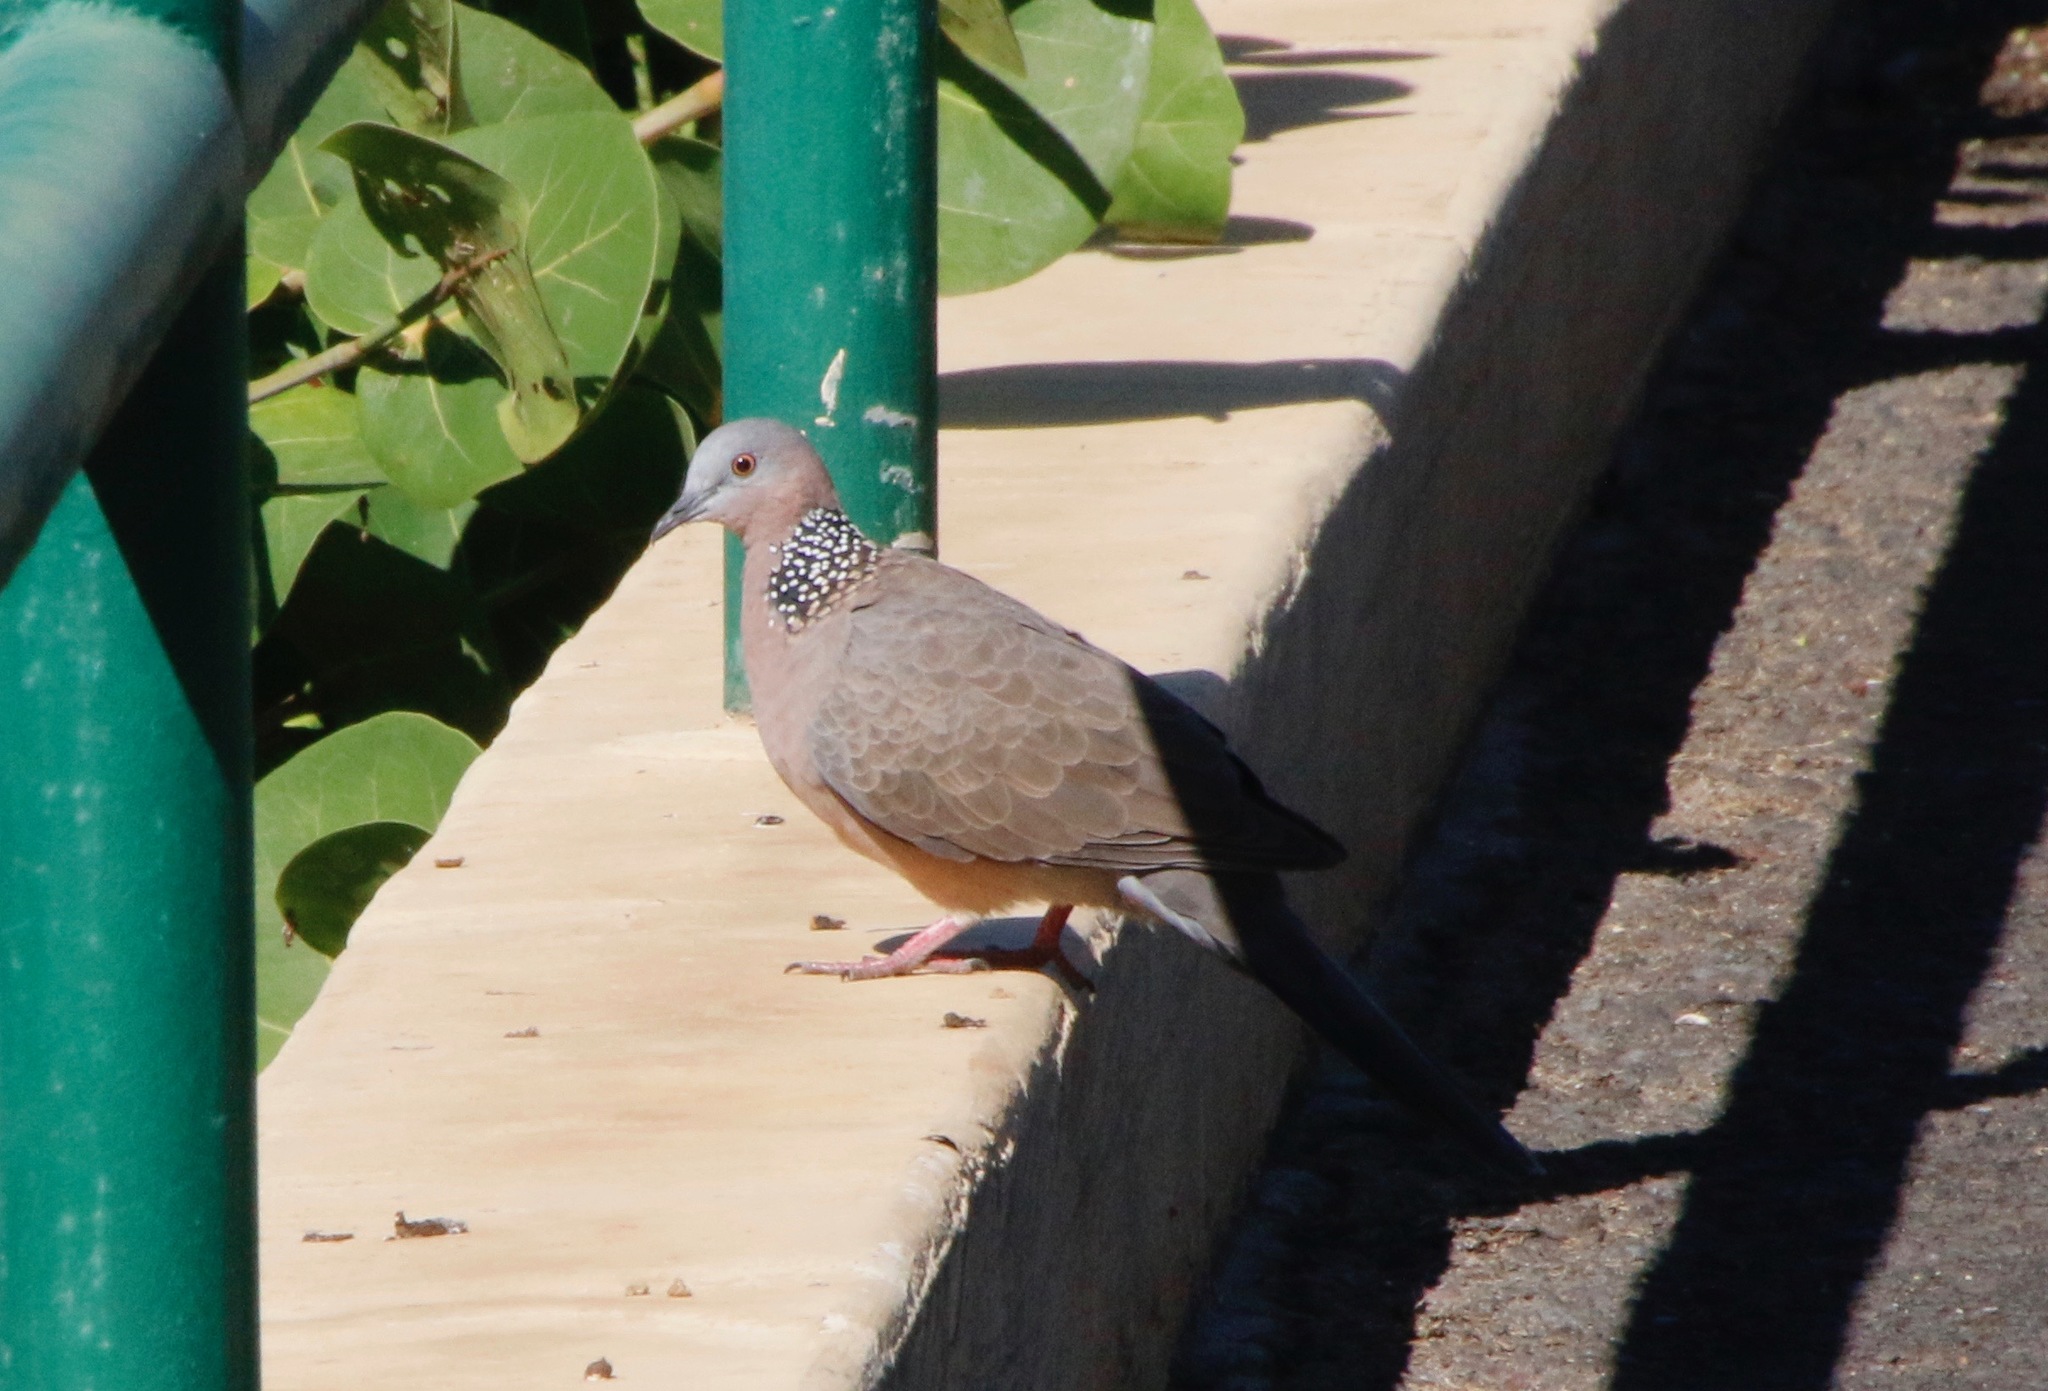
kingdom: Animalia
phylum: Chordata
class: Aves
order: Columbiformes
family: Columbidae
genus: Spilopelia
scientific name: Spilopelia chinensis
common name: Spotted dove
